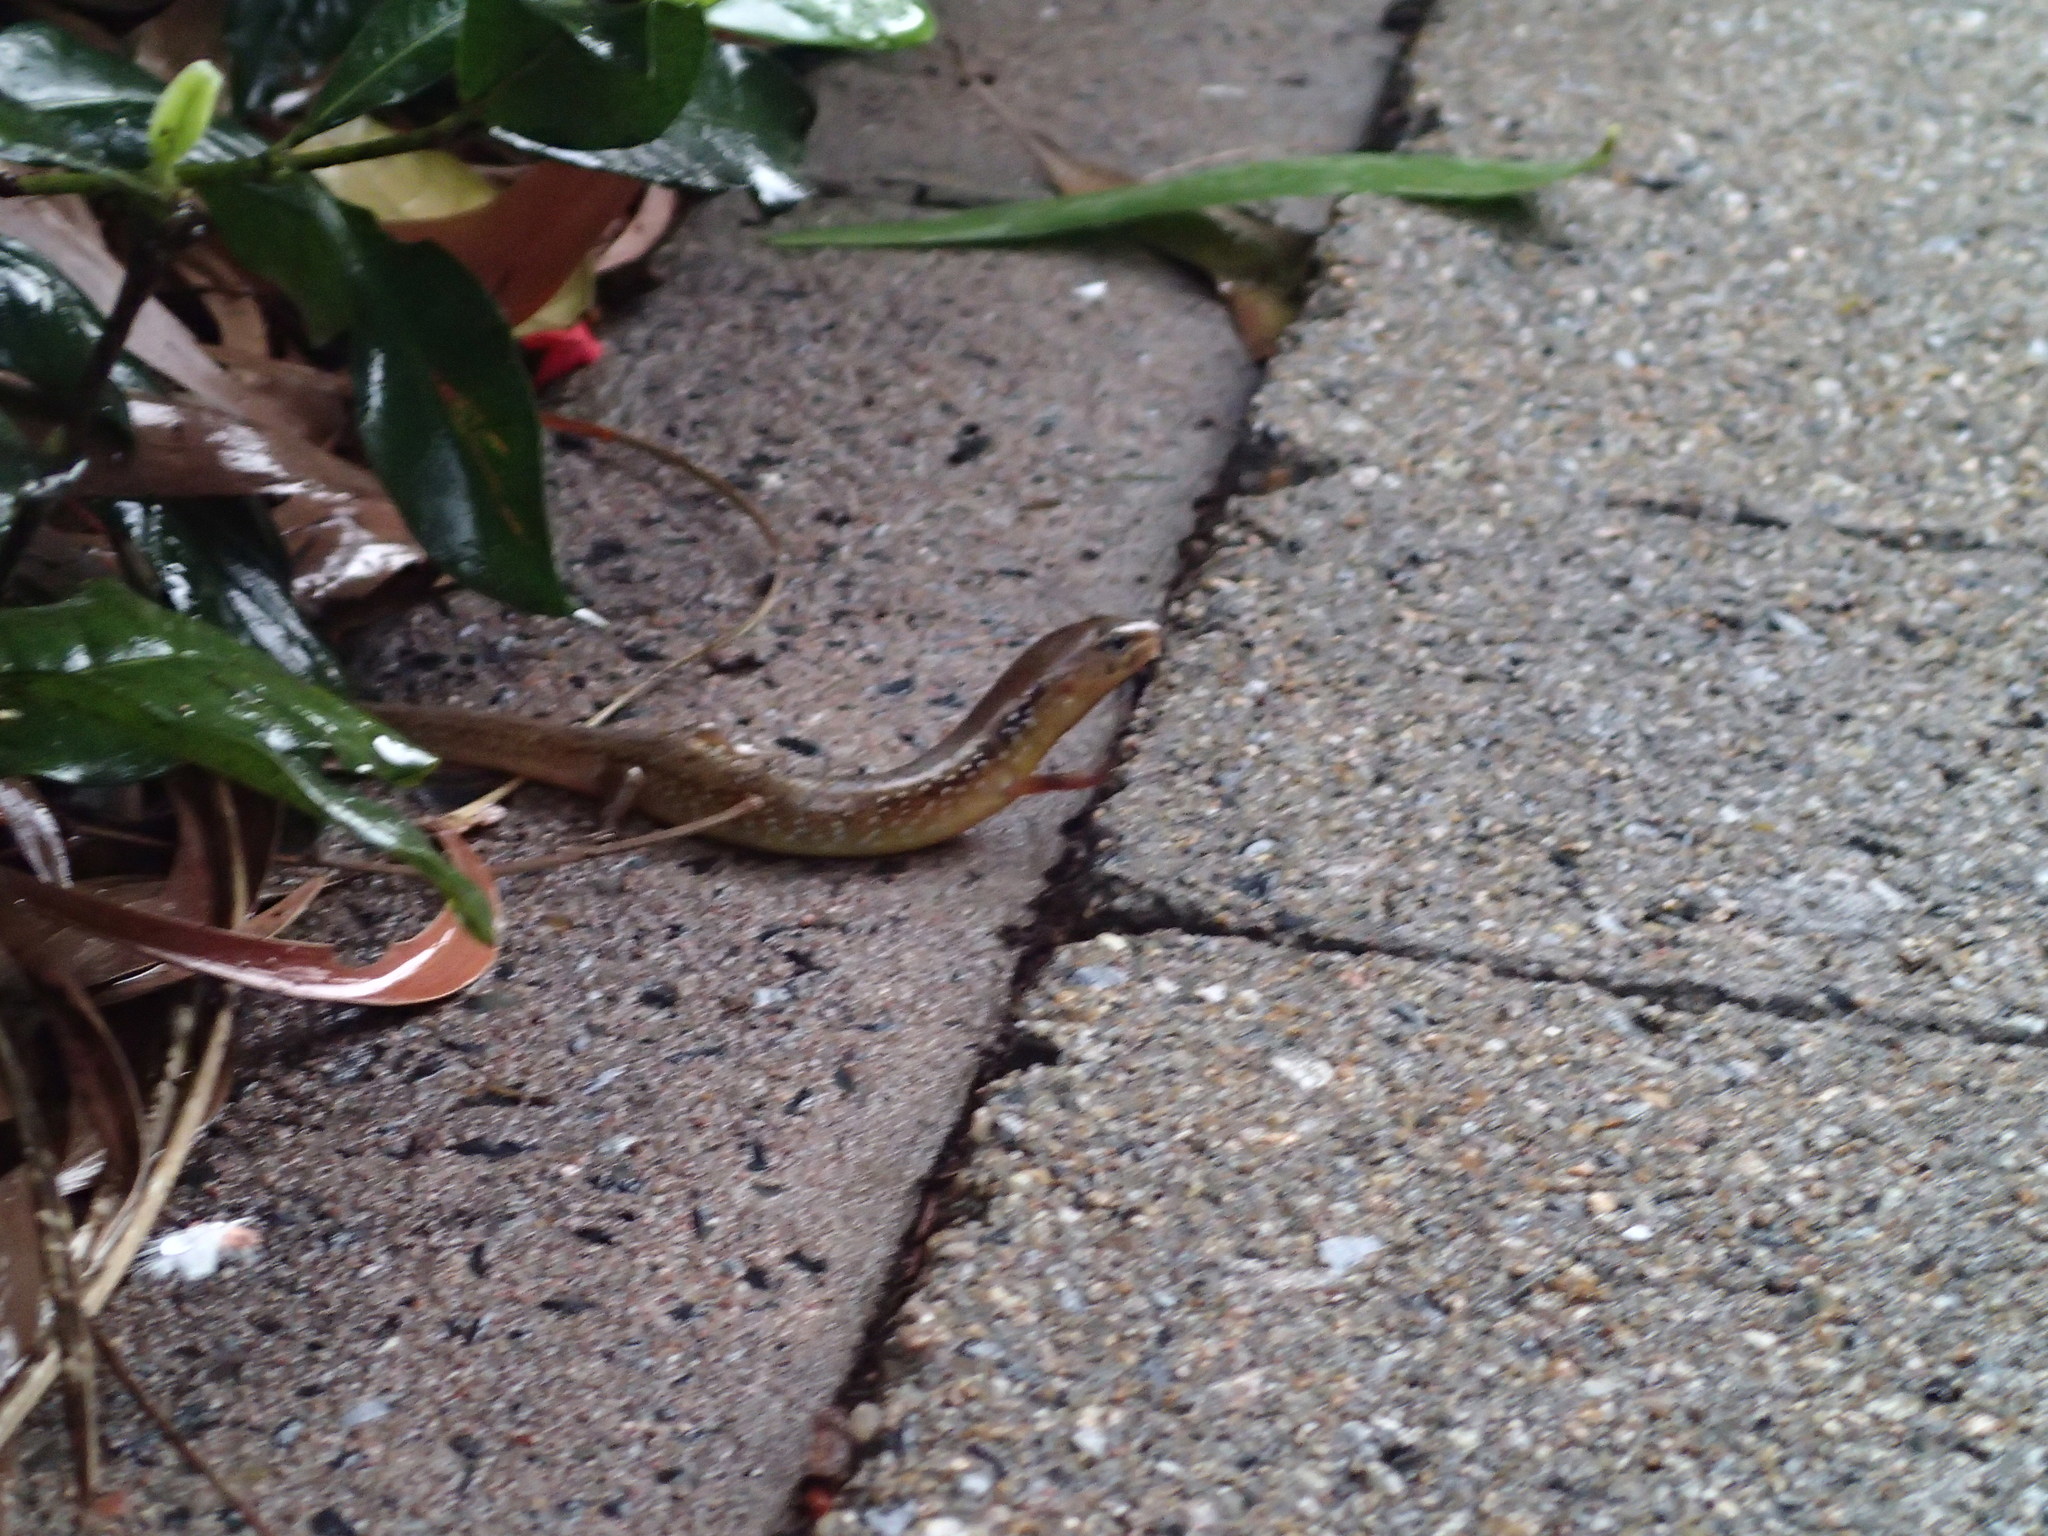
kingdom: Animalia
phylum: Chordata
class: Squamata
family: Scincidae
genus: Eremiascincus
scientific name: Eremiascincus douglasi
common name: Orange-sided bar-lipped skink
